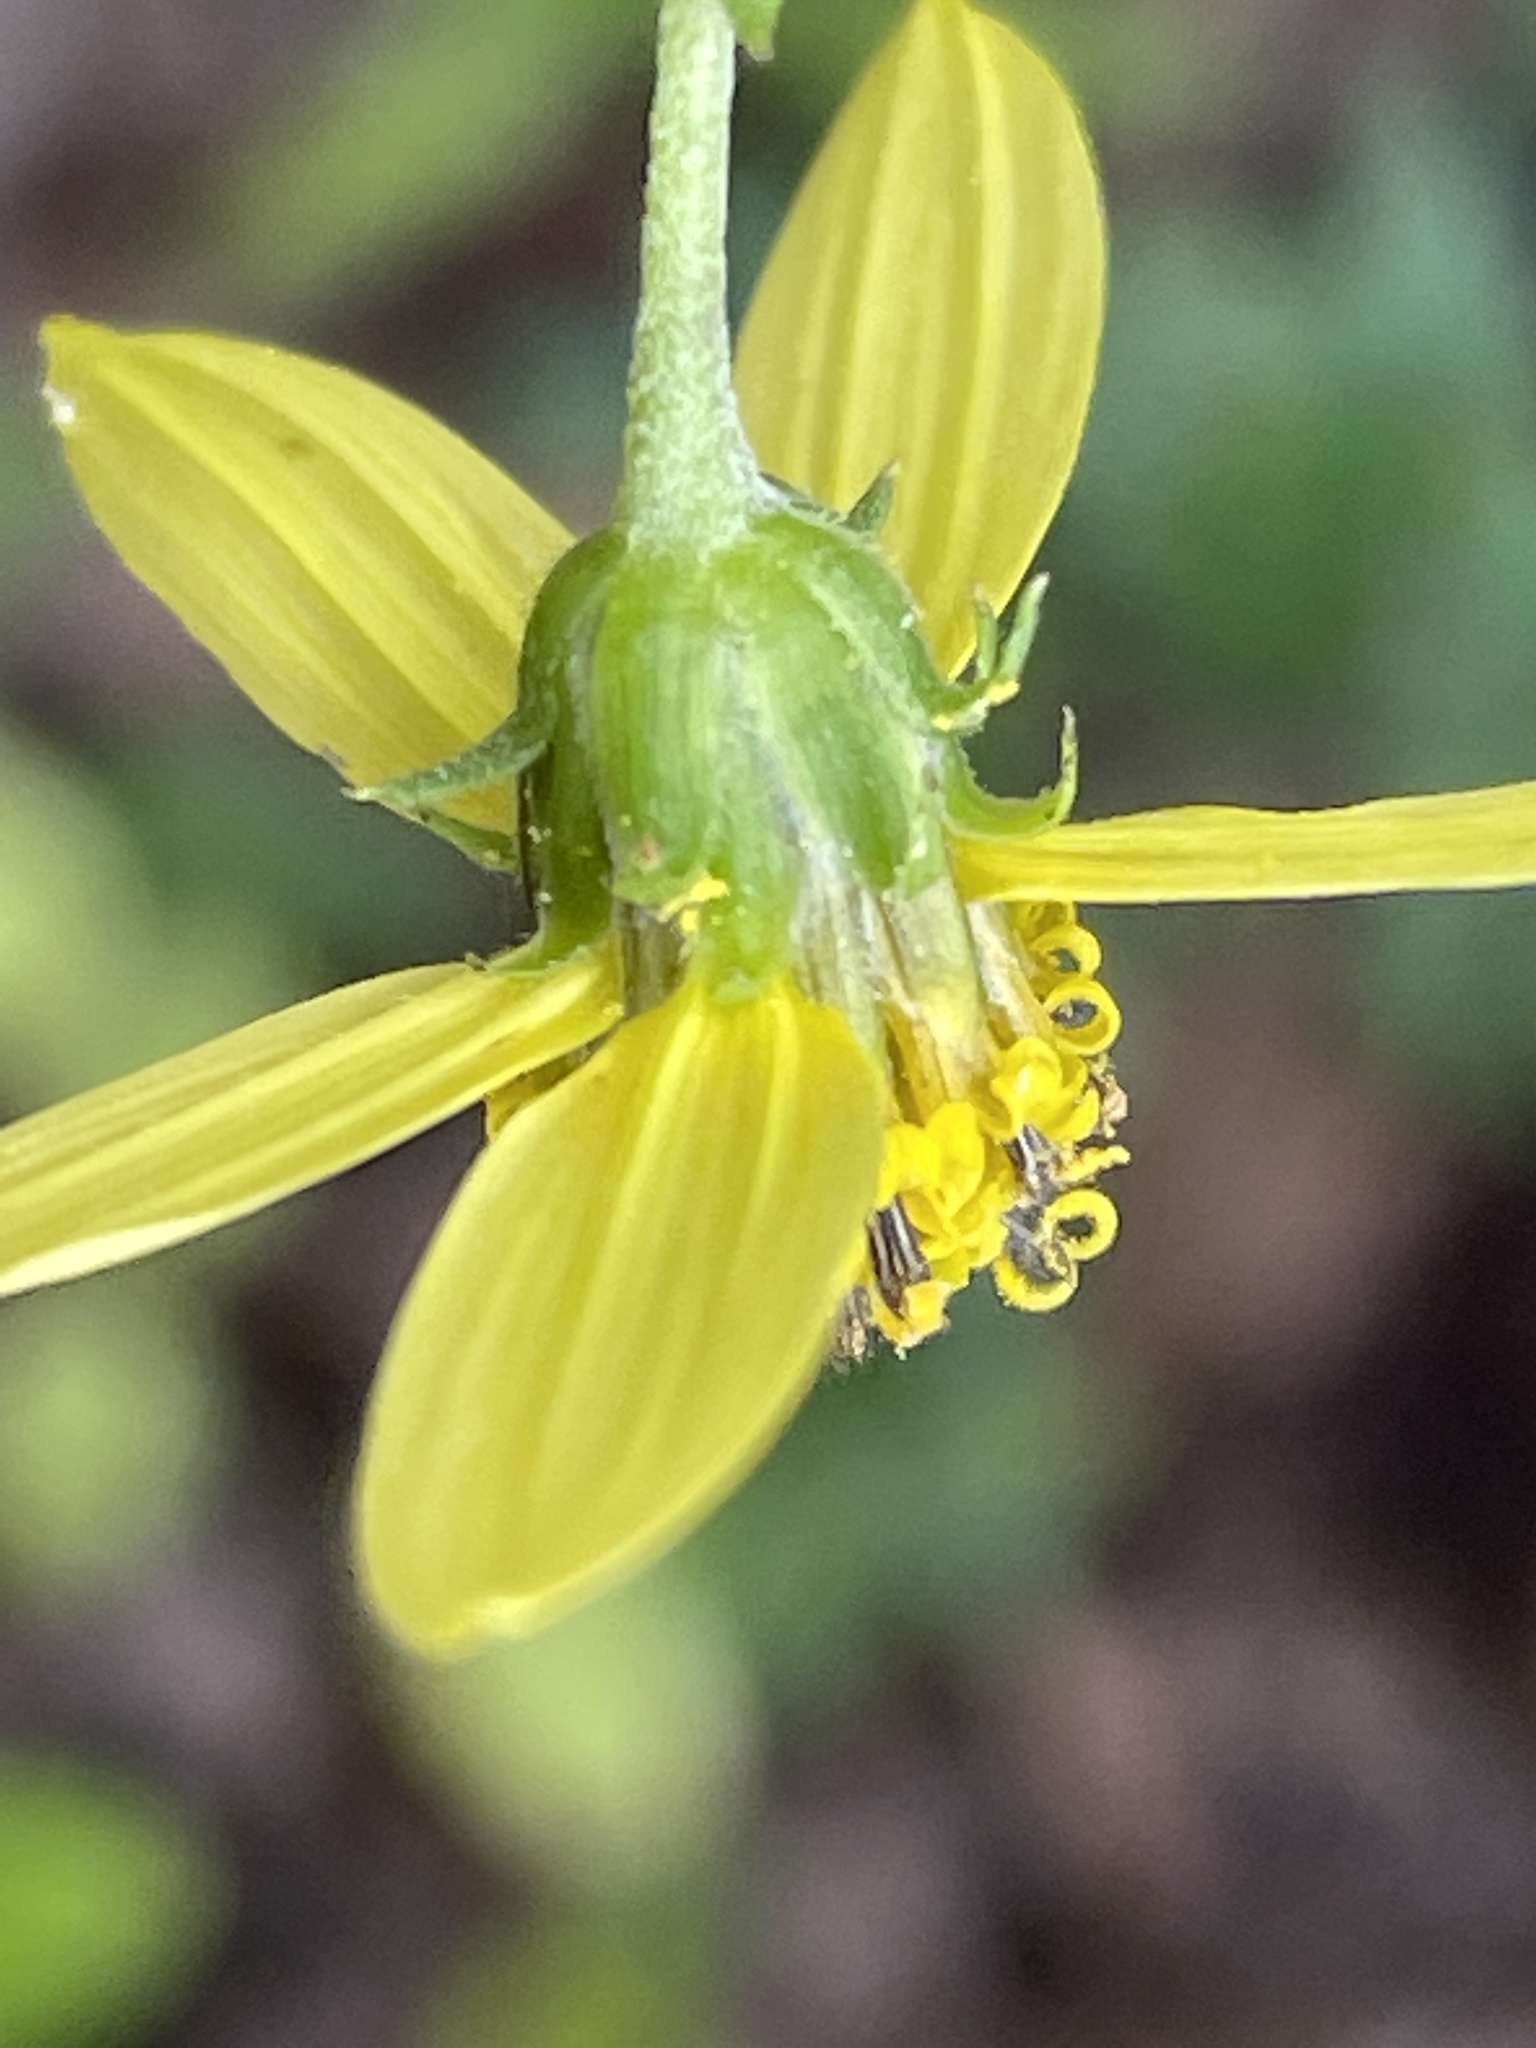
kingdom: Plantae
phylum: Tracheophyta
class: Magnoliopsida
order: Asterales
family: Asteraceae
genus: Helianthus
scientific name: Helianthus microcephalus
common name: Woodland sunflower
